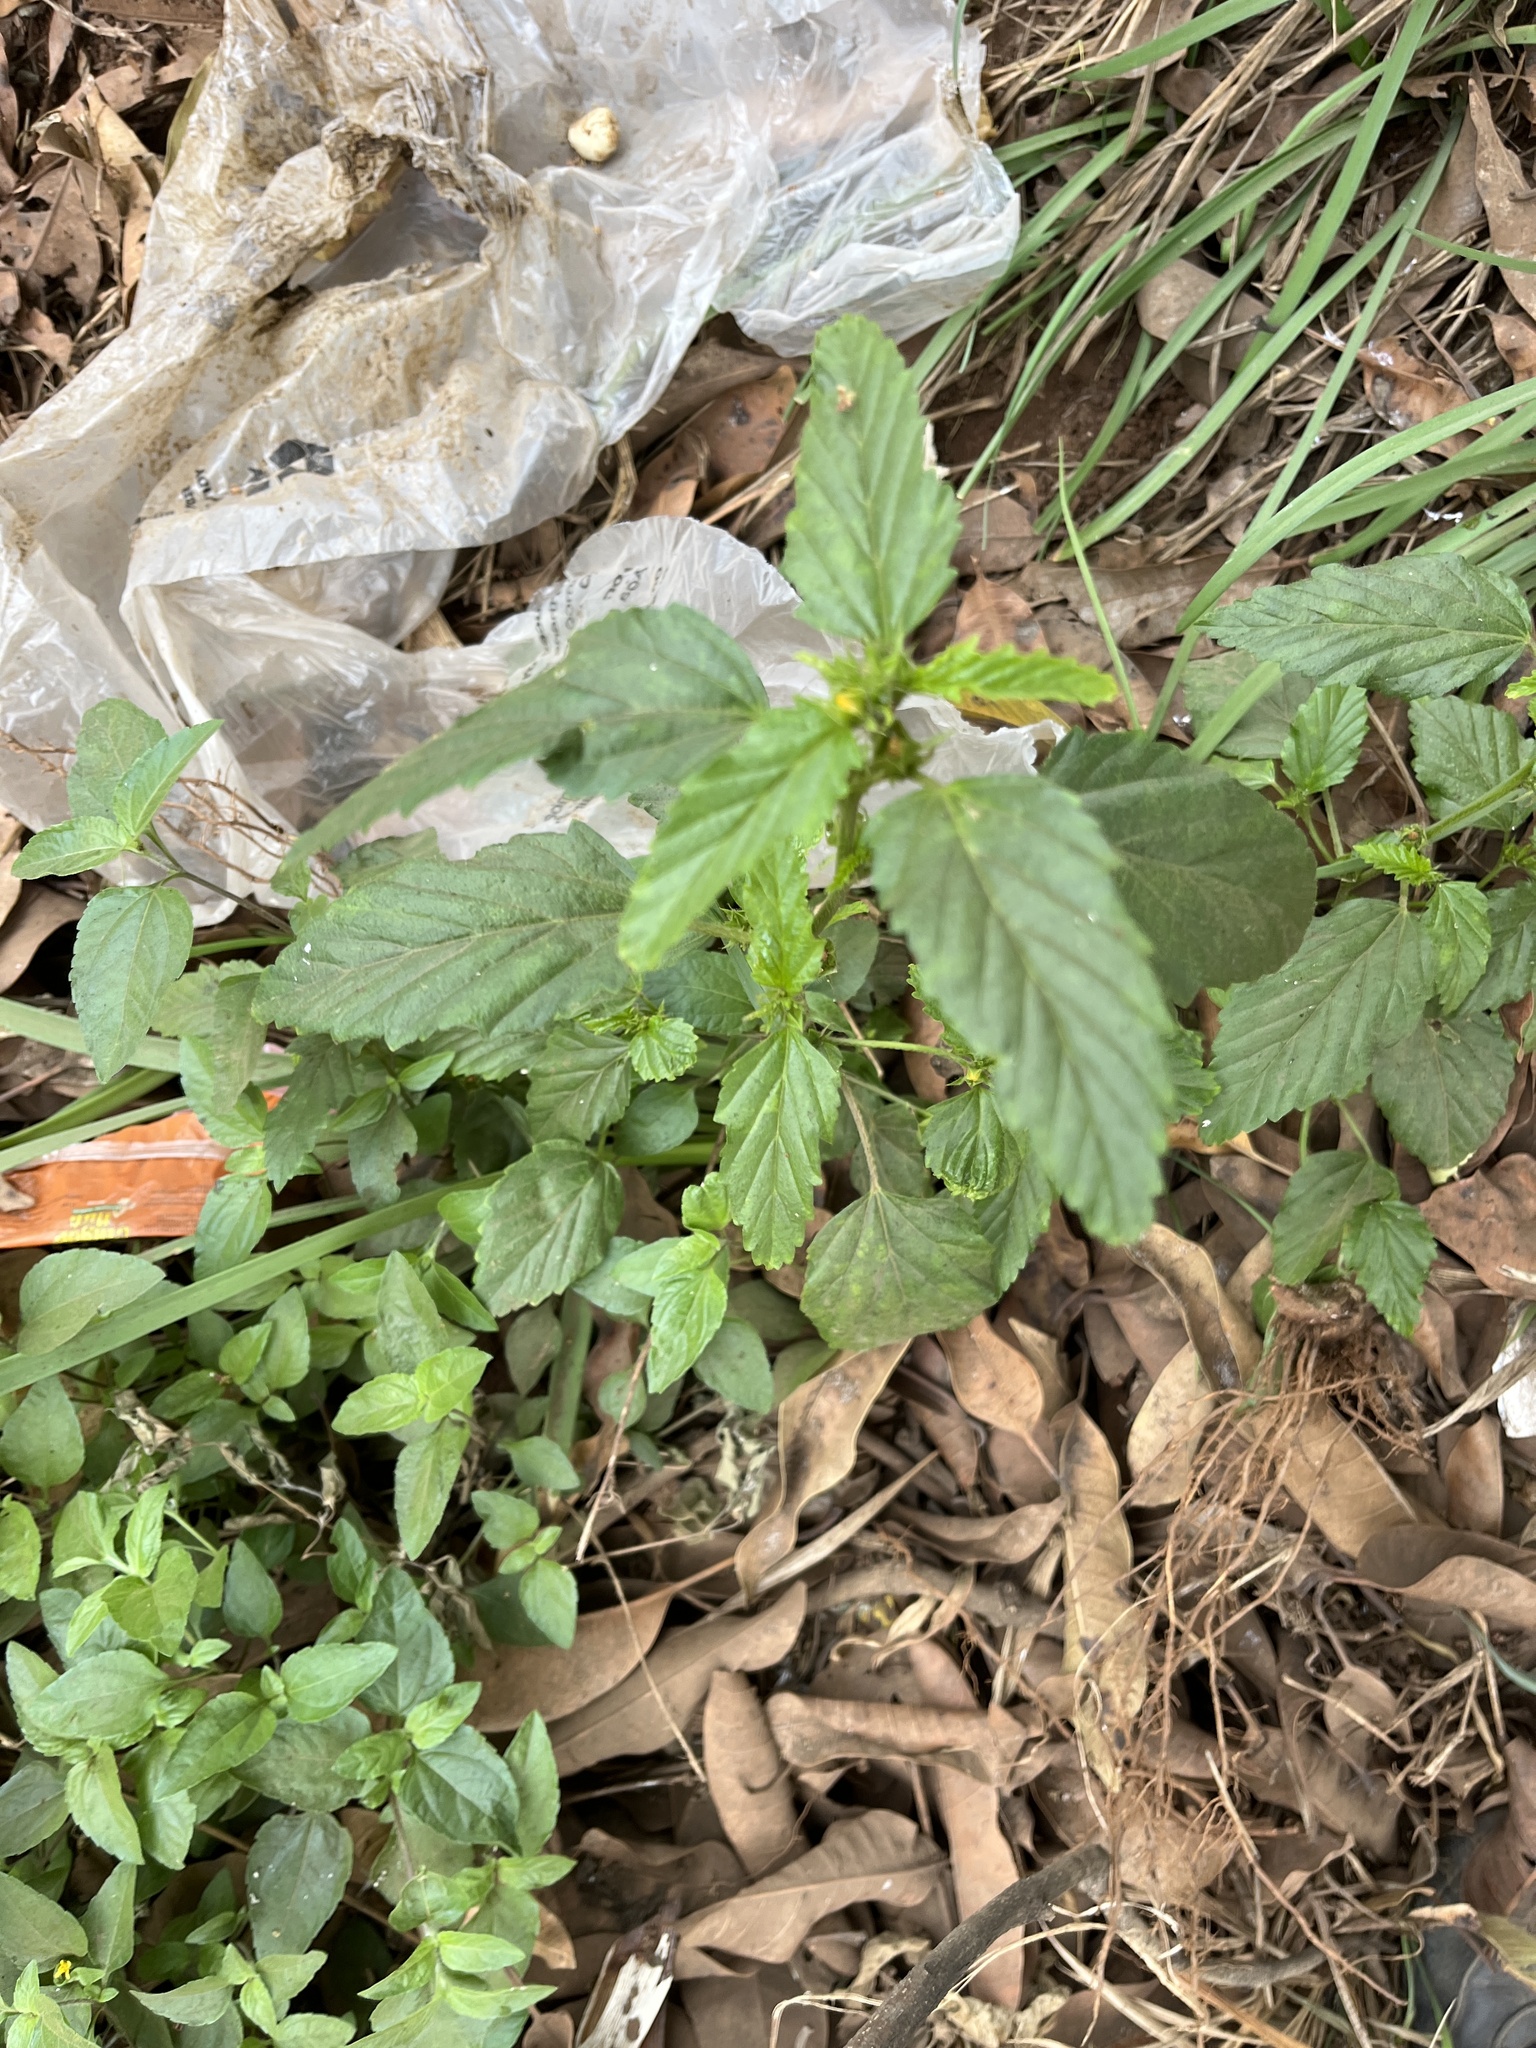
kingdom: Plantae
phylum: Tracheophyta
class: Magnoliopsida
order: Malvales
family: Malvaceae
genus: Malvastrum
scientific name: Malvastrum coromandelianum
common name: Threelobe false mallow
